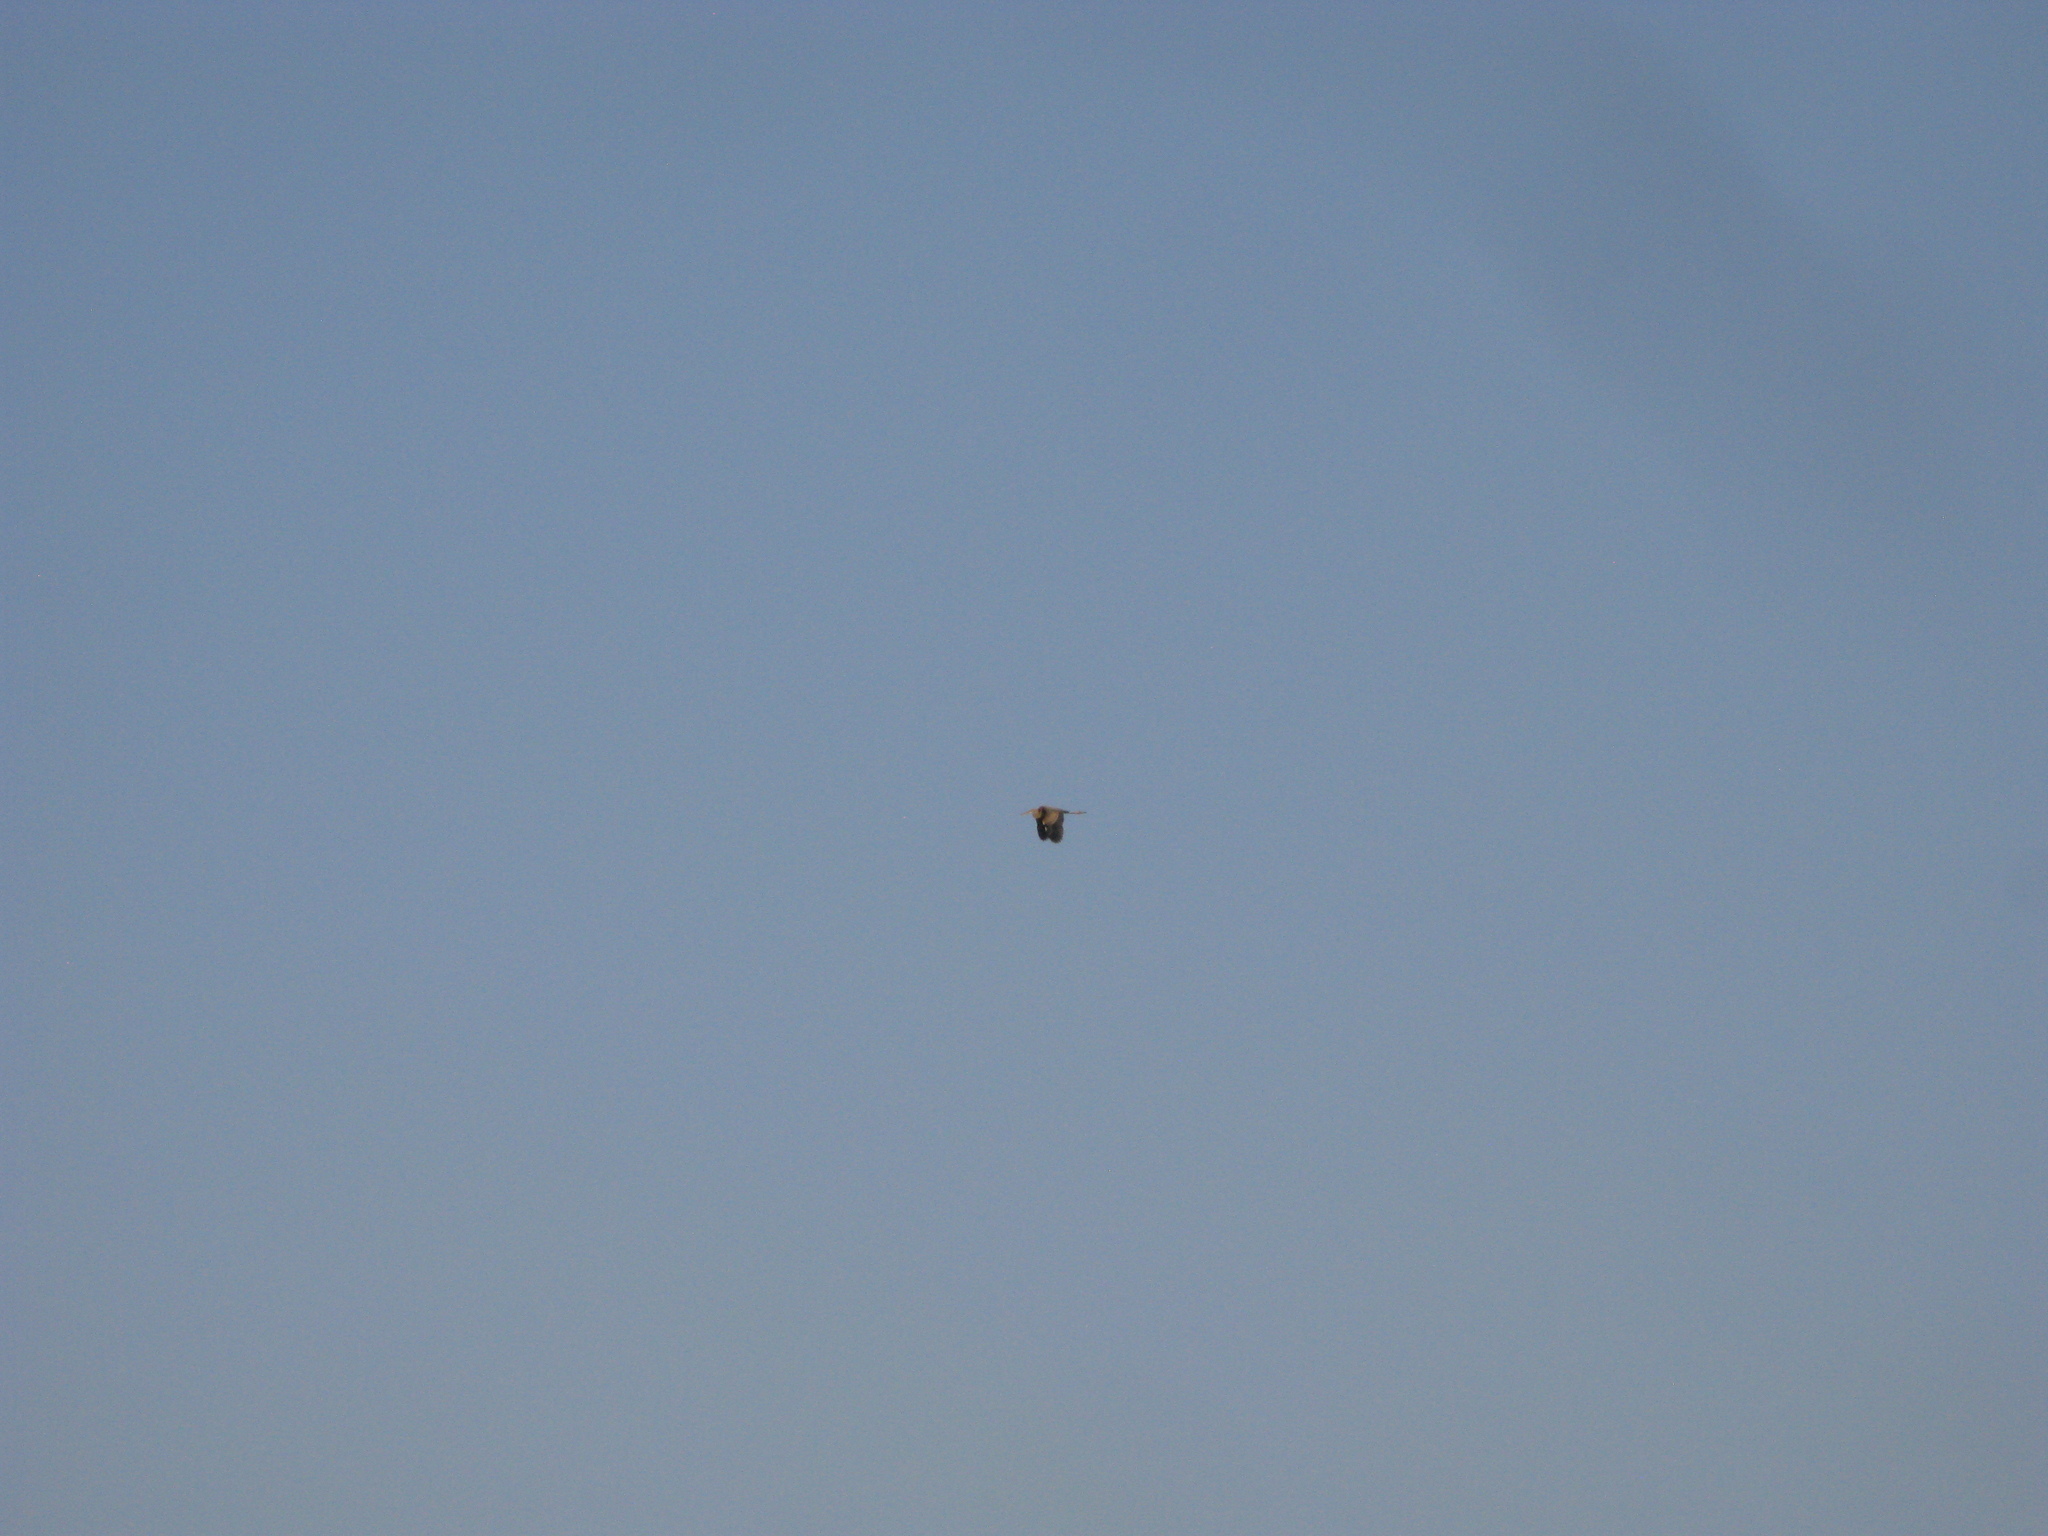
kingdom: Animalia
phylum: Chordata
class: Aves
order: Pelecaniformes
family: Ardeidae
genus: Ardea
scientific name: Ardea purpurea
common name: Purple heron
